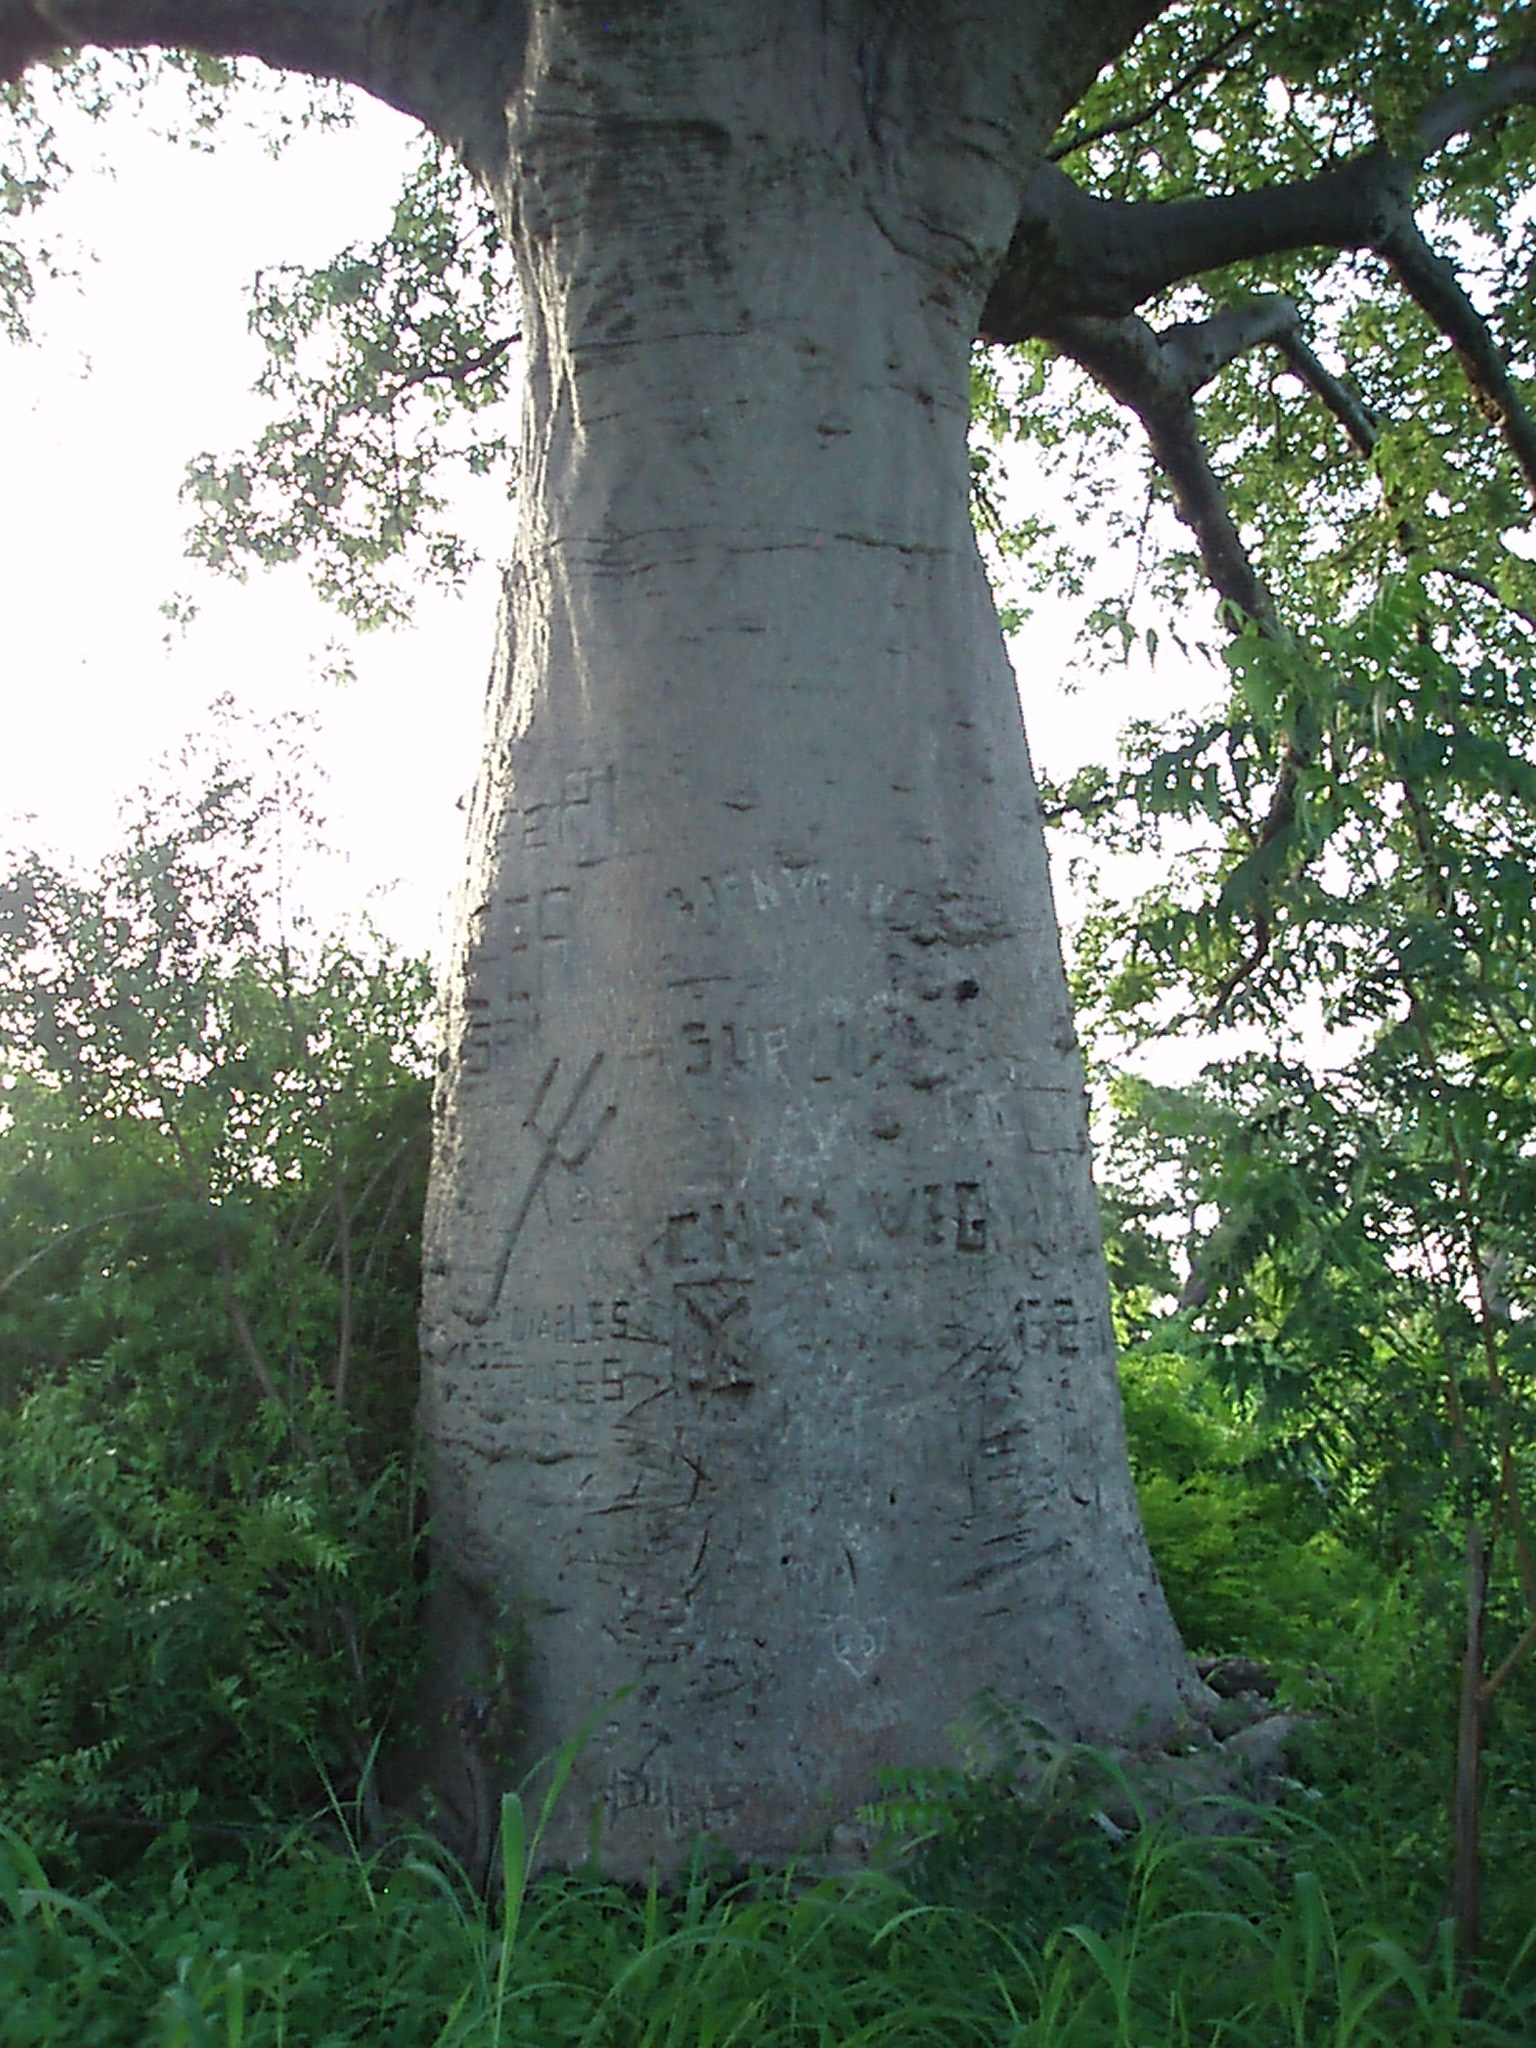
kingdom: Plantae
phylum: Tracheophyta
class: Magnoliopsida
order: Malvales
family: Malvaceae
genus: Adansonia
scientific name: Adansonia digitata
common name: Dead-rat-tree
